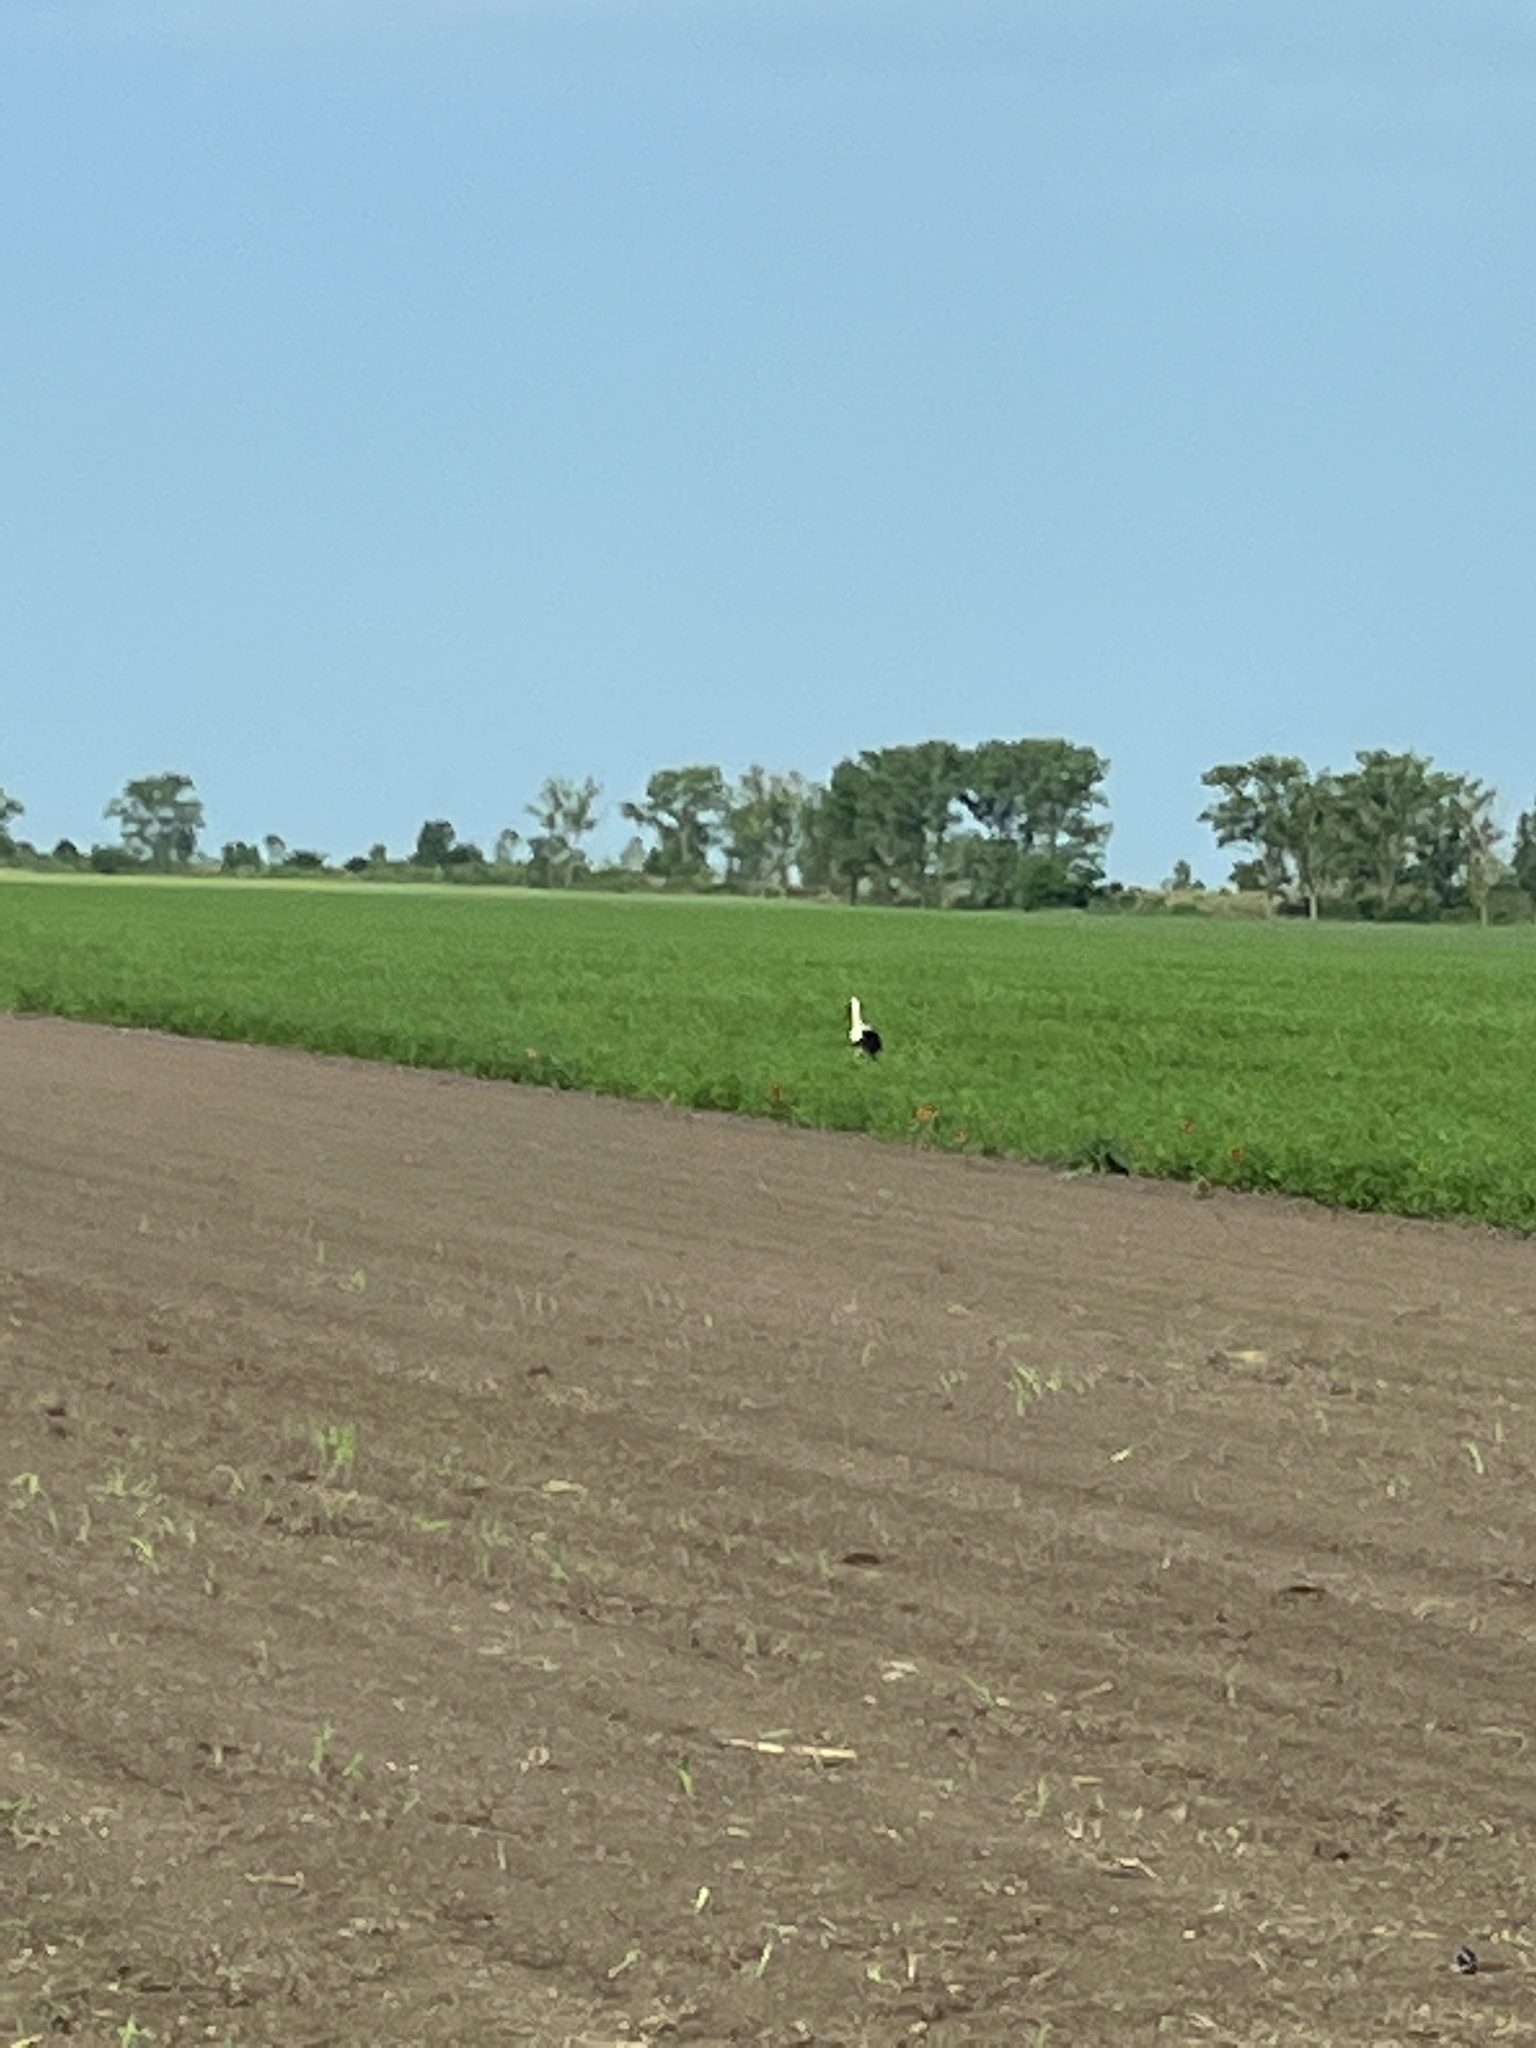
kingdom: Animalia
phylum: Chordata
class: Aves
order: Ciconiiformes
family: Ciconiidae
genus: Ciconia
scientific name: Ciconia ciconia
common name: White stork
